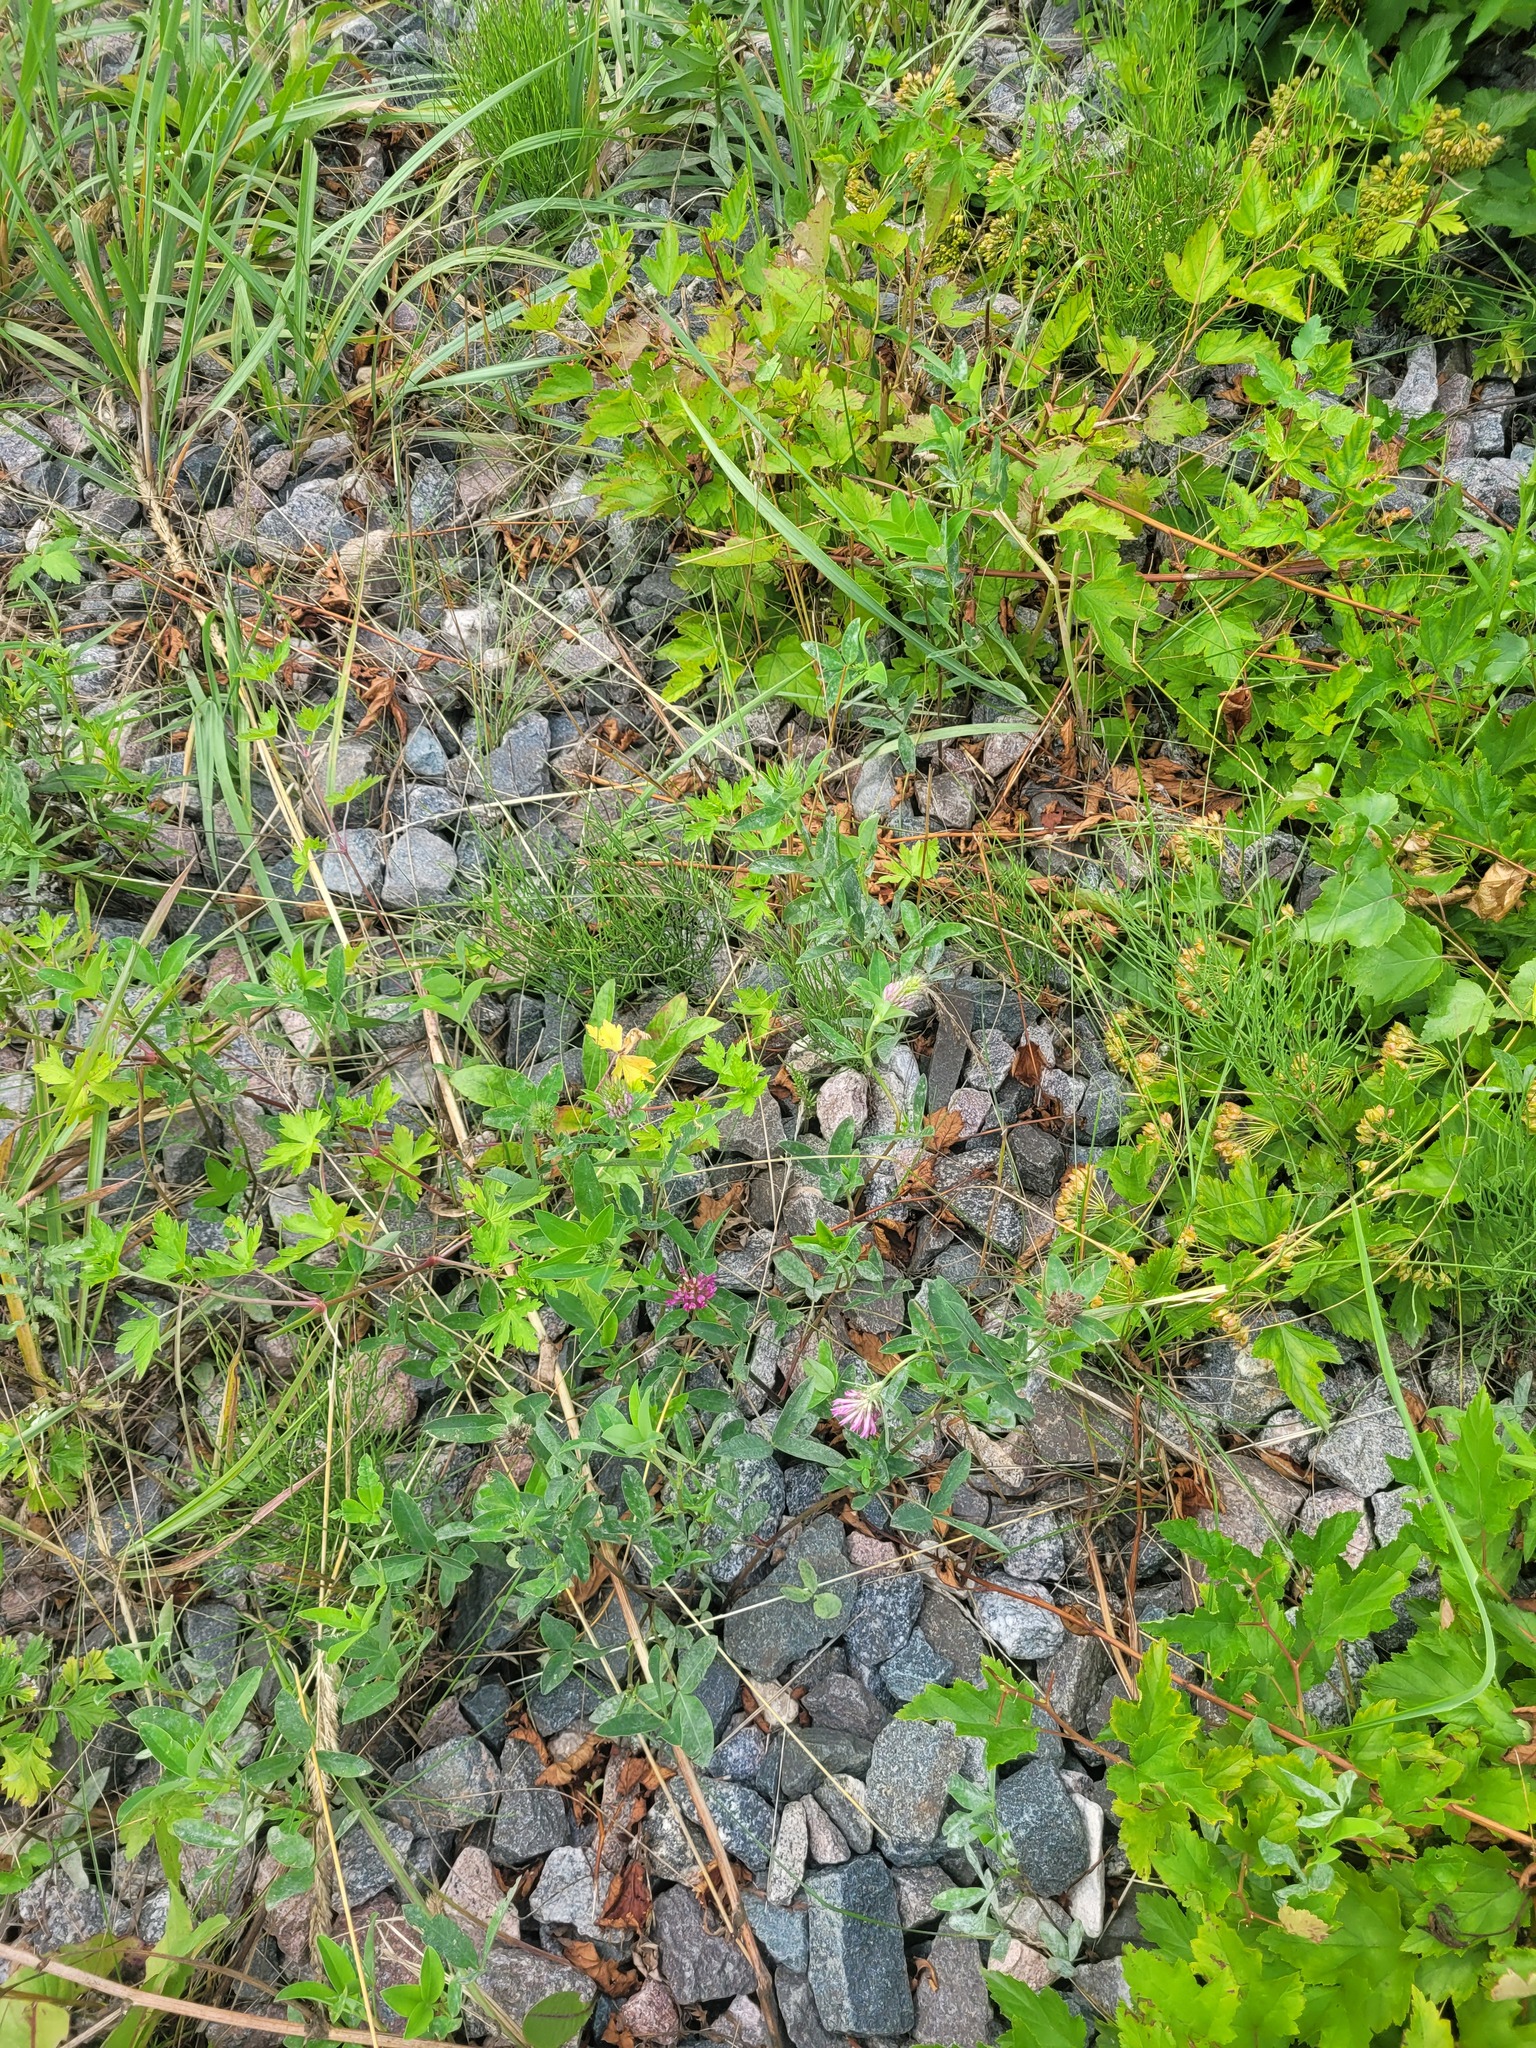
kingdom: Plantae
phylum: Tracheophyta
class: Magnoliopsida
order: Fabales
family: Fabaceae
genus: Trifolium
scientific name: Trifolium medium
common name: Zigzag clover
